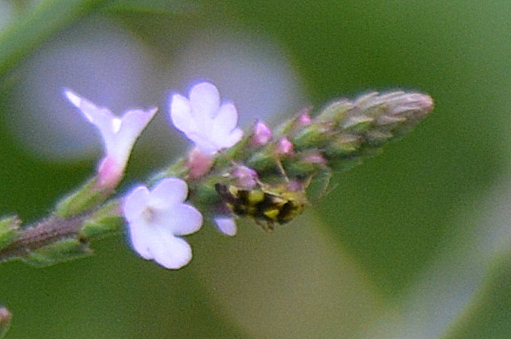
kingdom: Animalia
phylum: Arthropoda
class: Insecta
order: Hemiptera
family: Miridae
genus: Liocoris
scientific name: Liocoris tripustulatus
